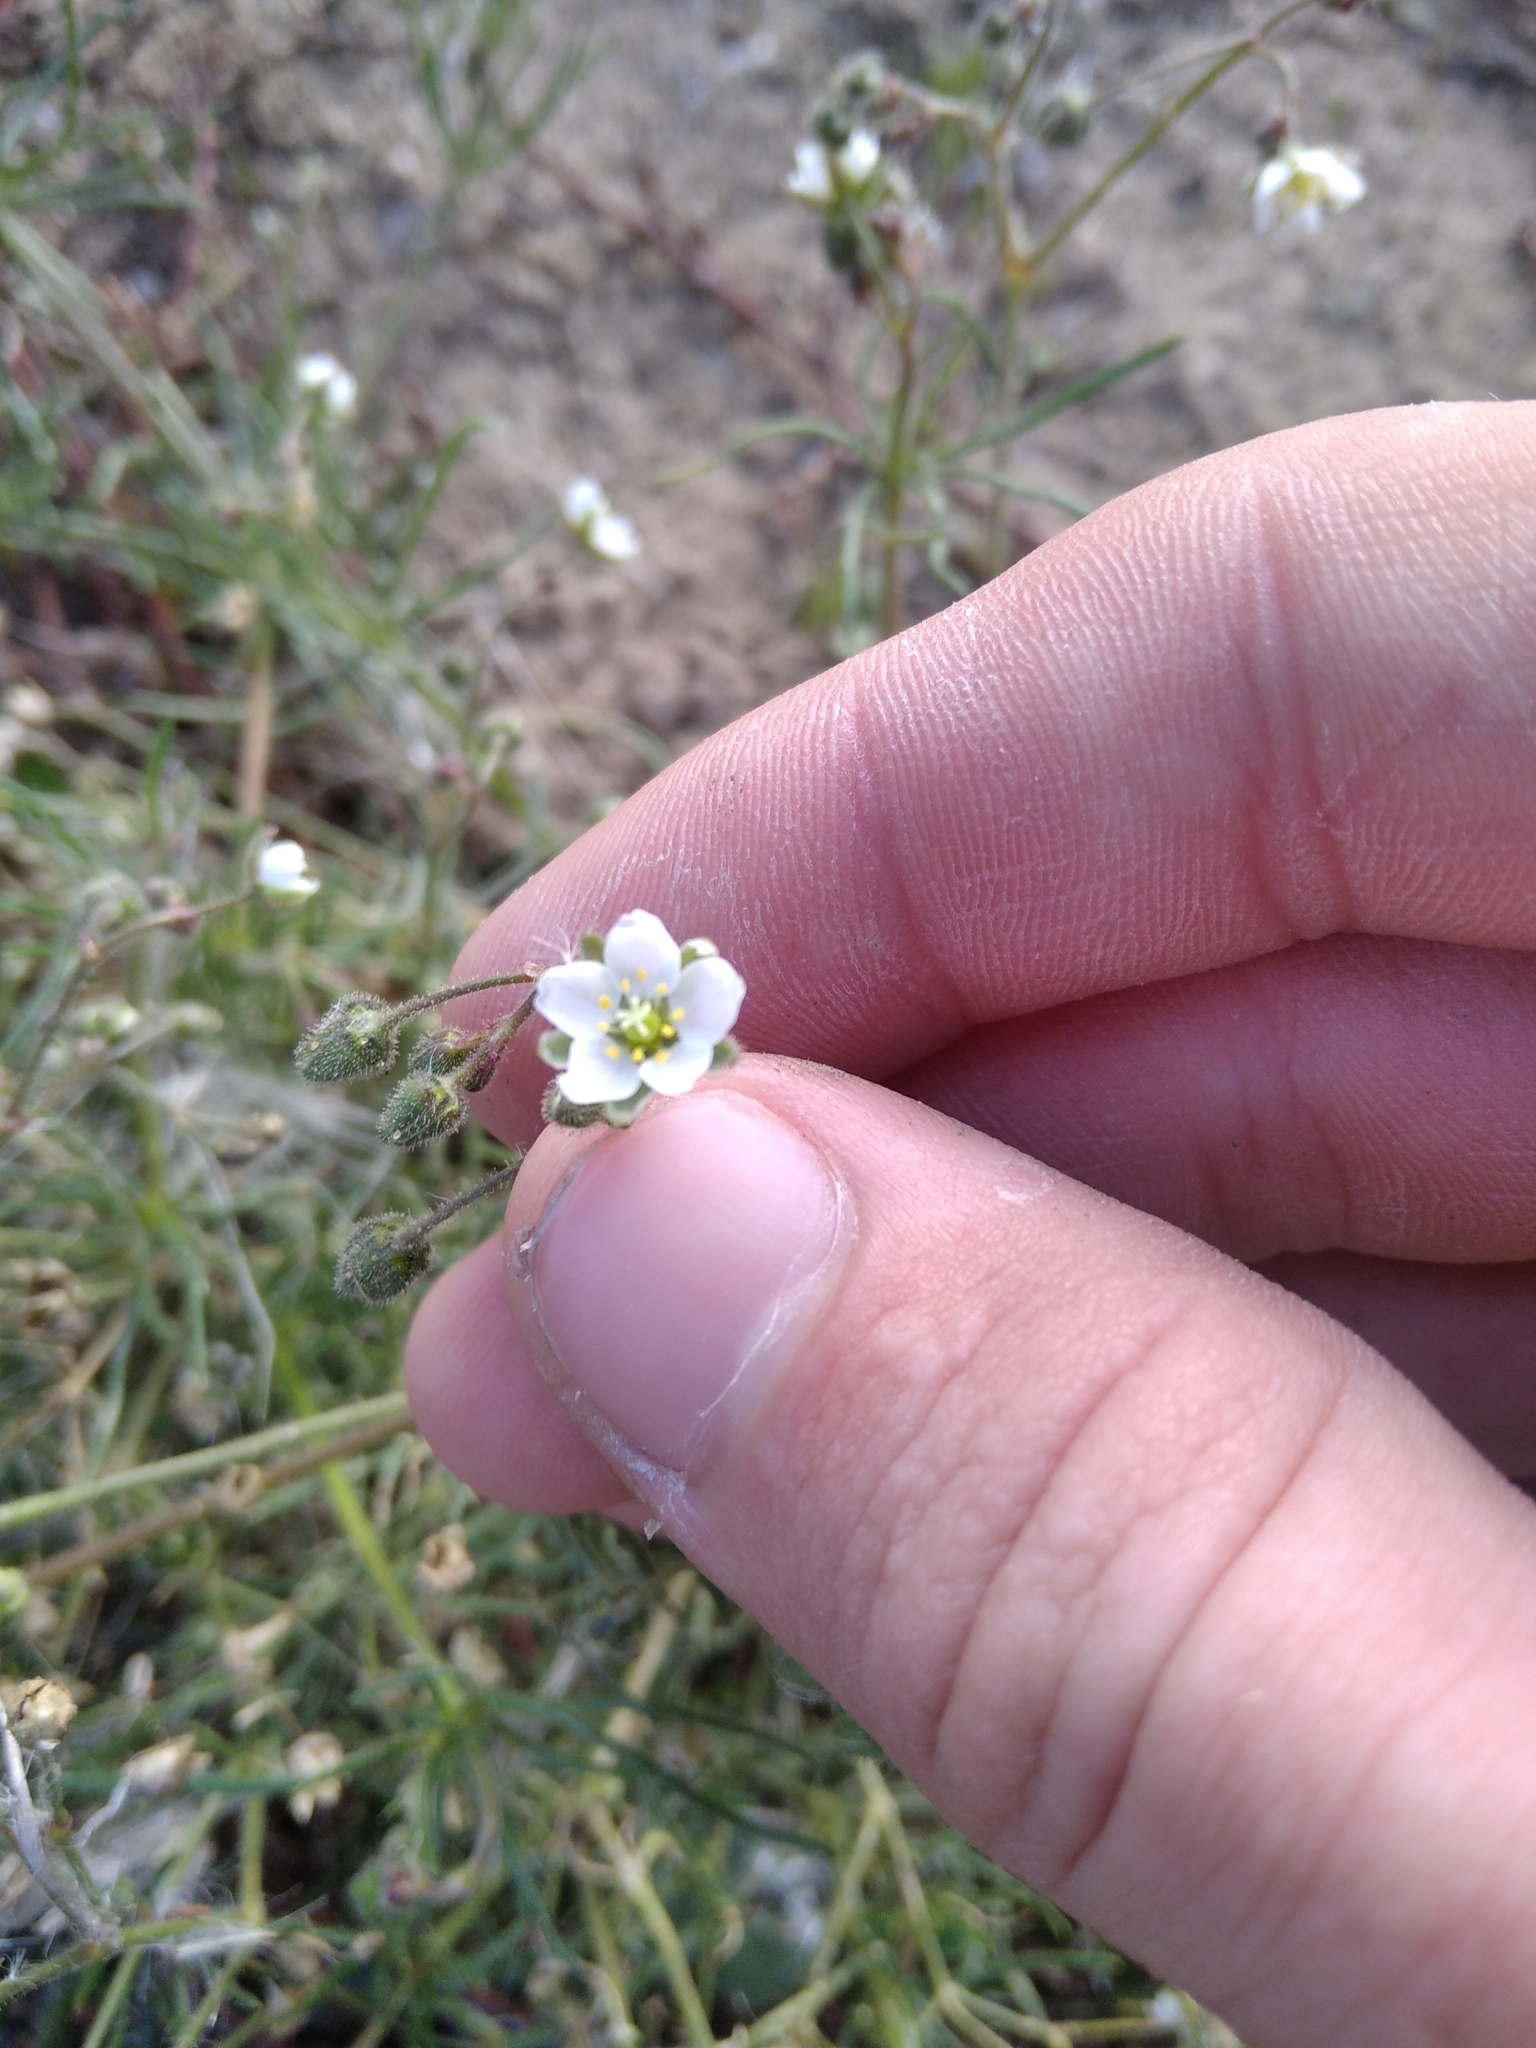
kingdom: Plantae
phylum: Tracheophyta
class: Magnoliopsida
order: Caryophyllales
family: Caryophyllaceae
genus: Spergula
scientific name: Spergula arvensis
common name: Corn spurrey
